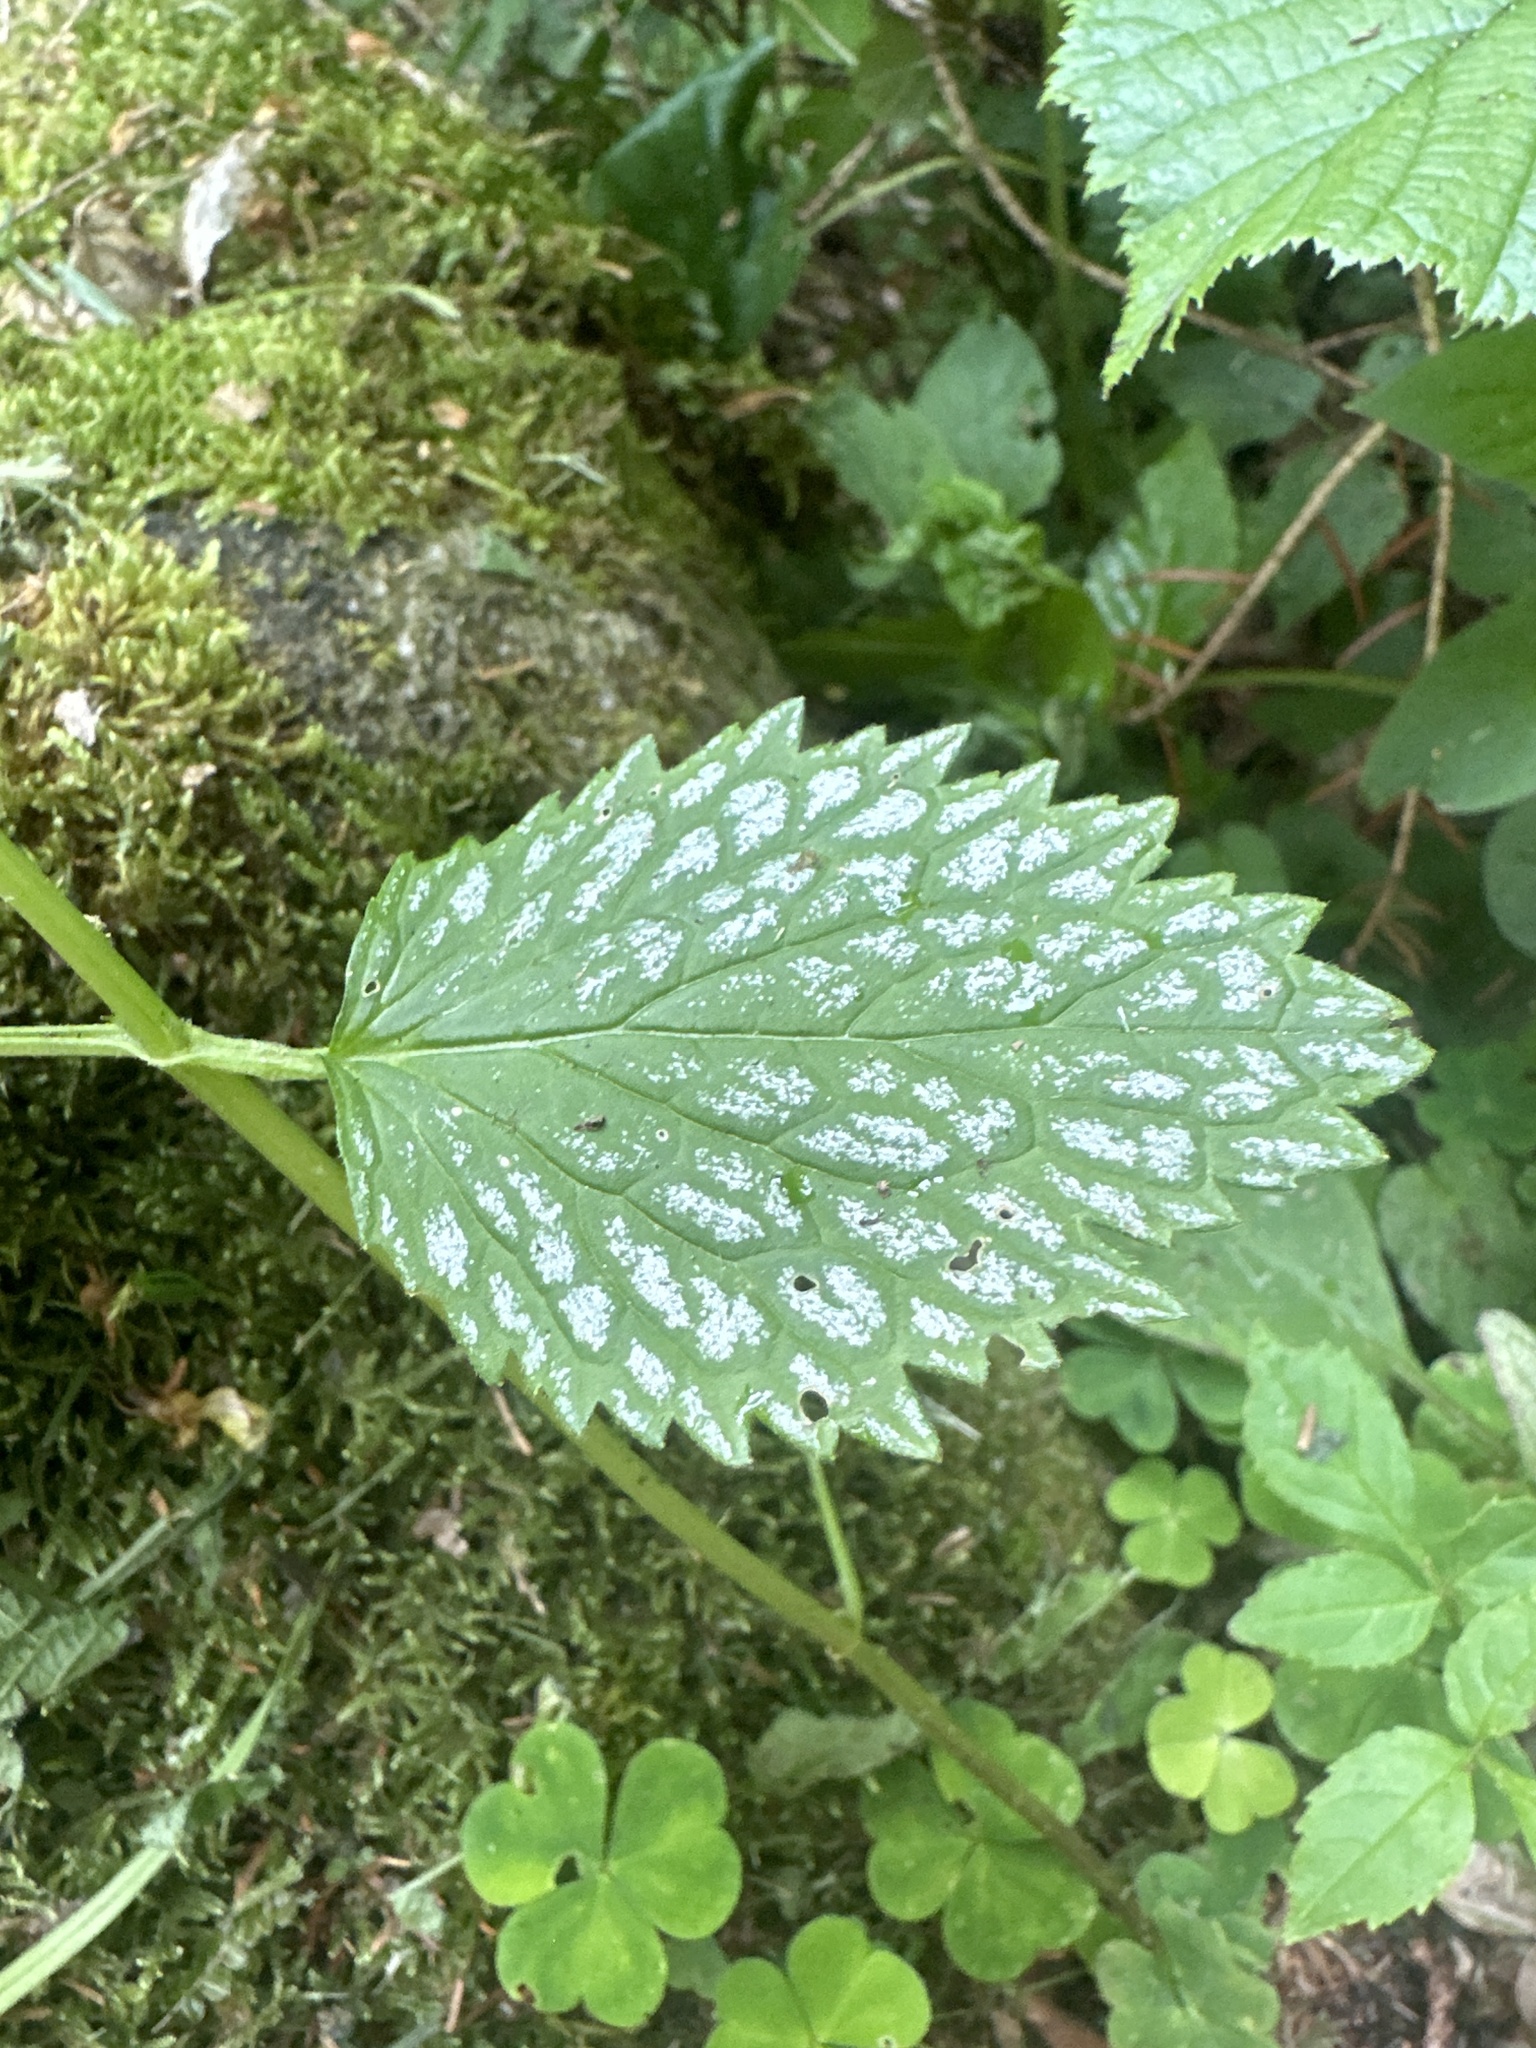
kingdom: Plantae
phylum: Tracheophyta
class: Magnoliopsida
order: Lamiales
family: Lamiaceae
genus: Lamium
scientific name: Lamium galeobdolon
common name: Yellow archangel
